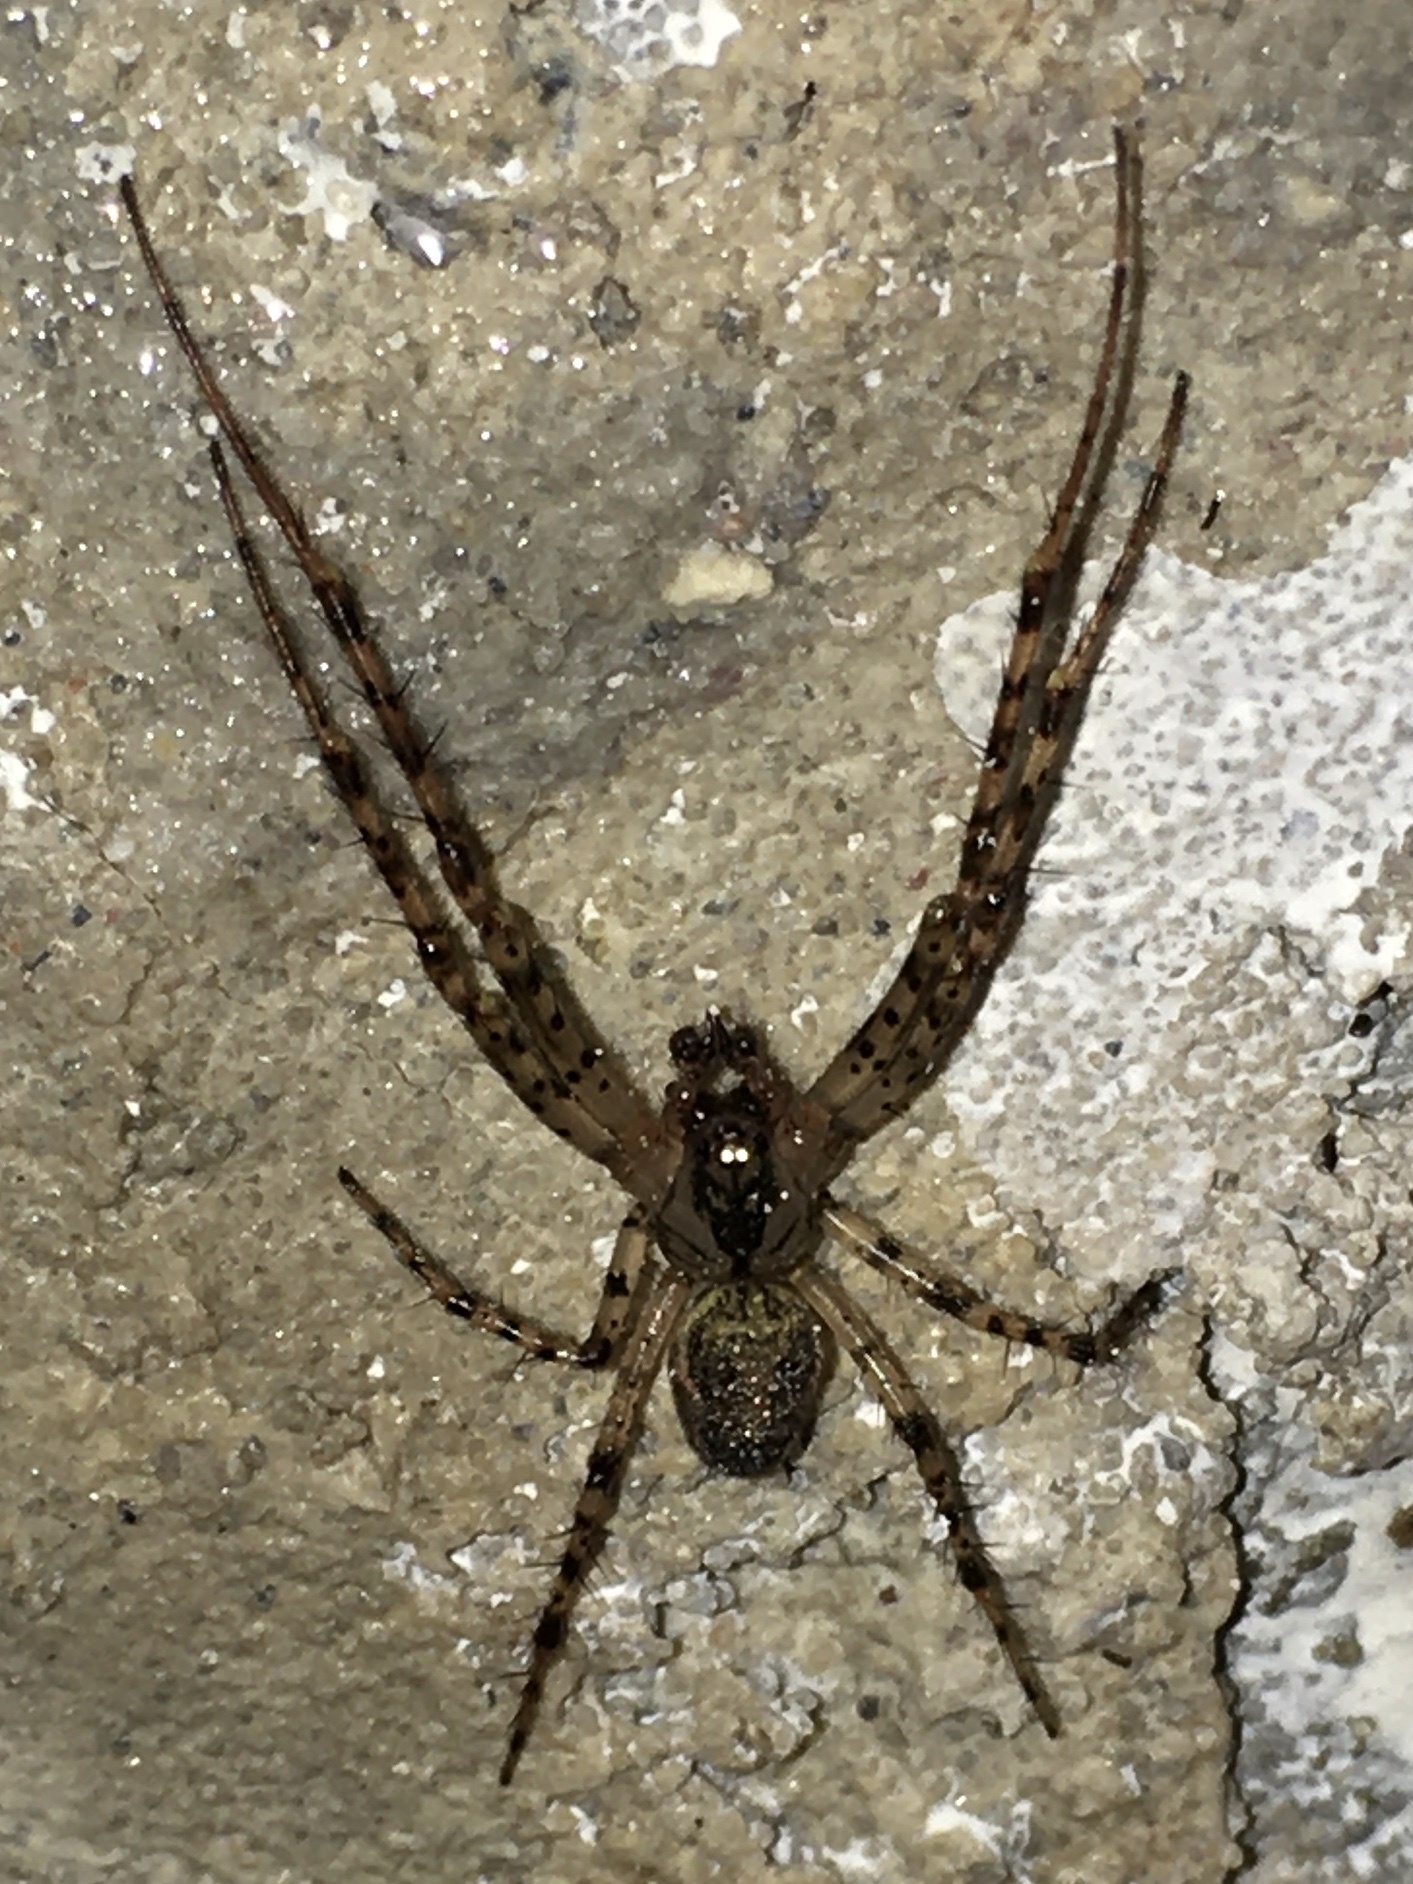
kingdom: Animalia
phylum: Arthropoda
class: Arachnida
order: Araneae
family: Tetragnathidae
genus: Metellina
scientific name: Metellina merianae
